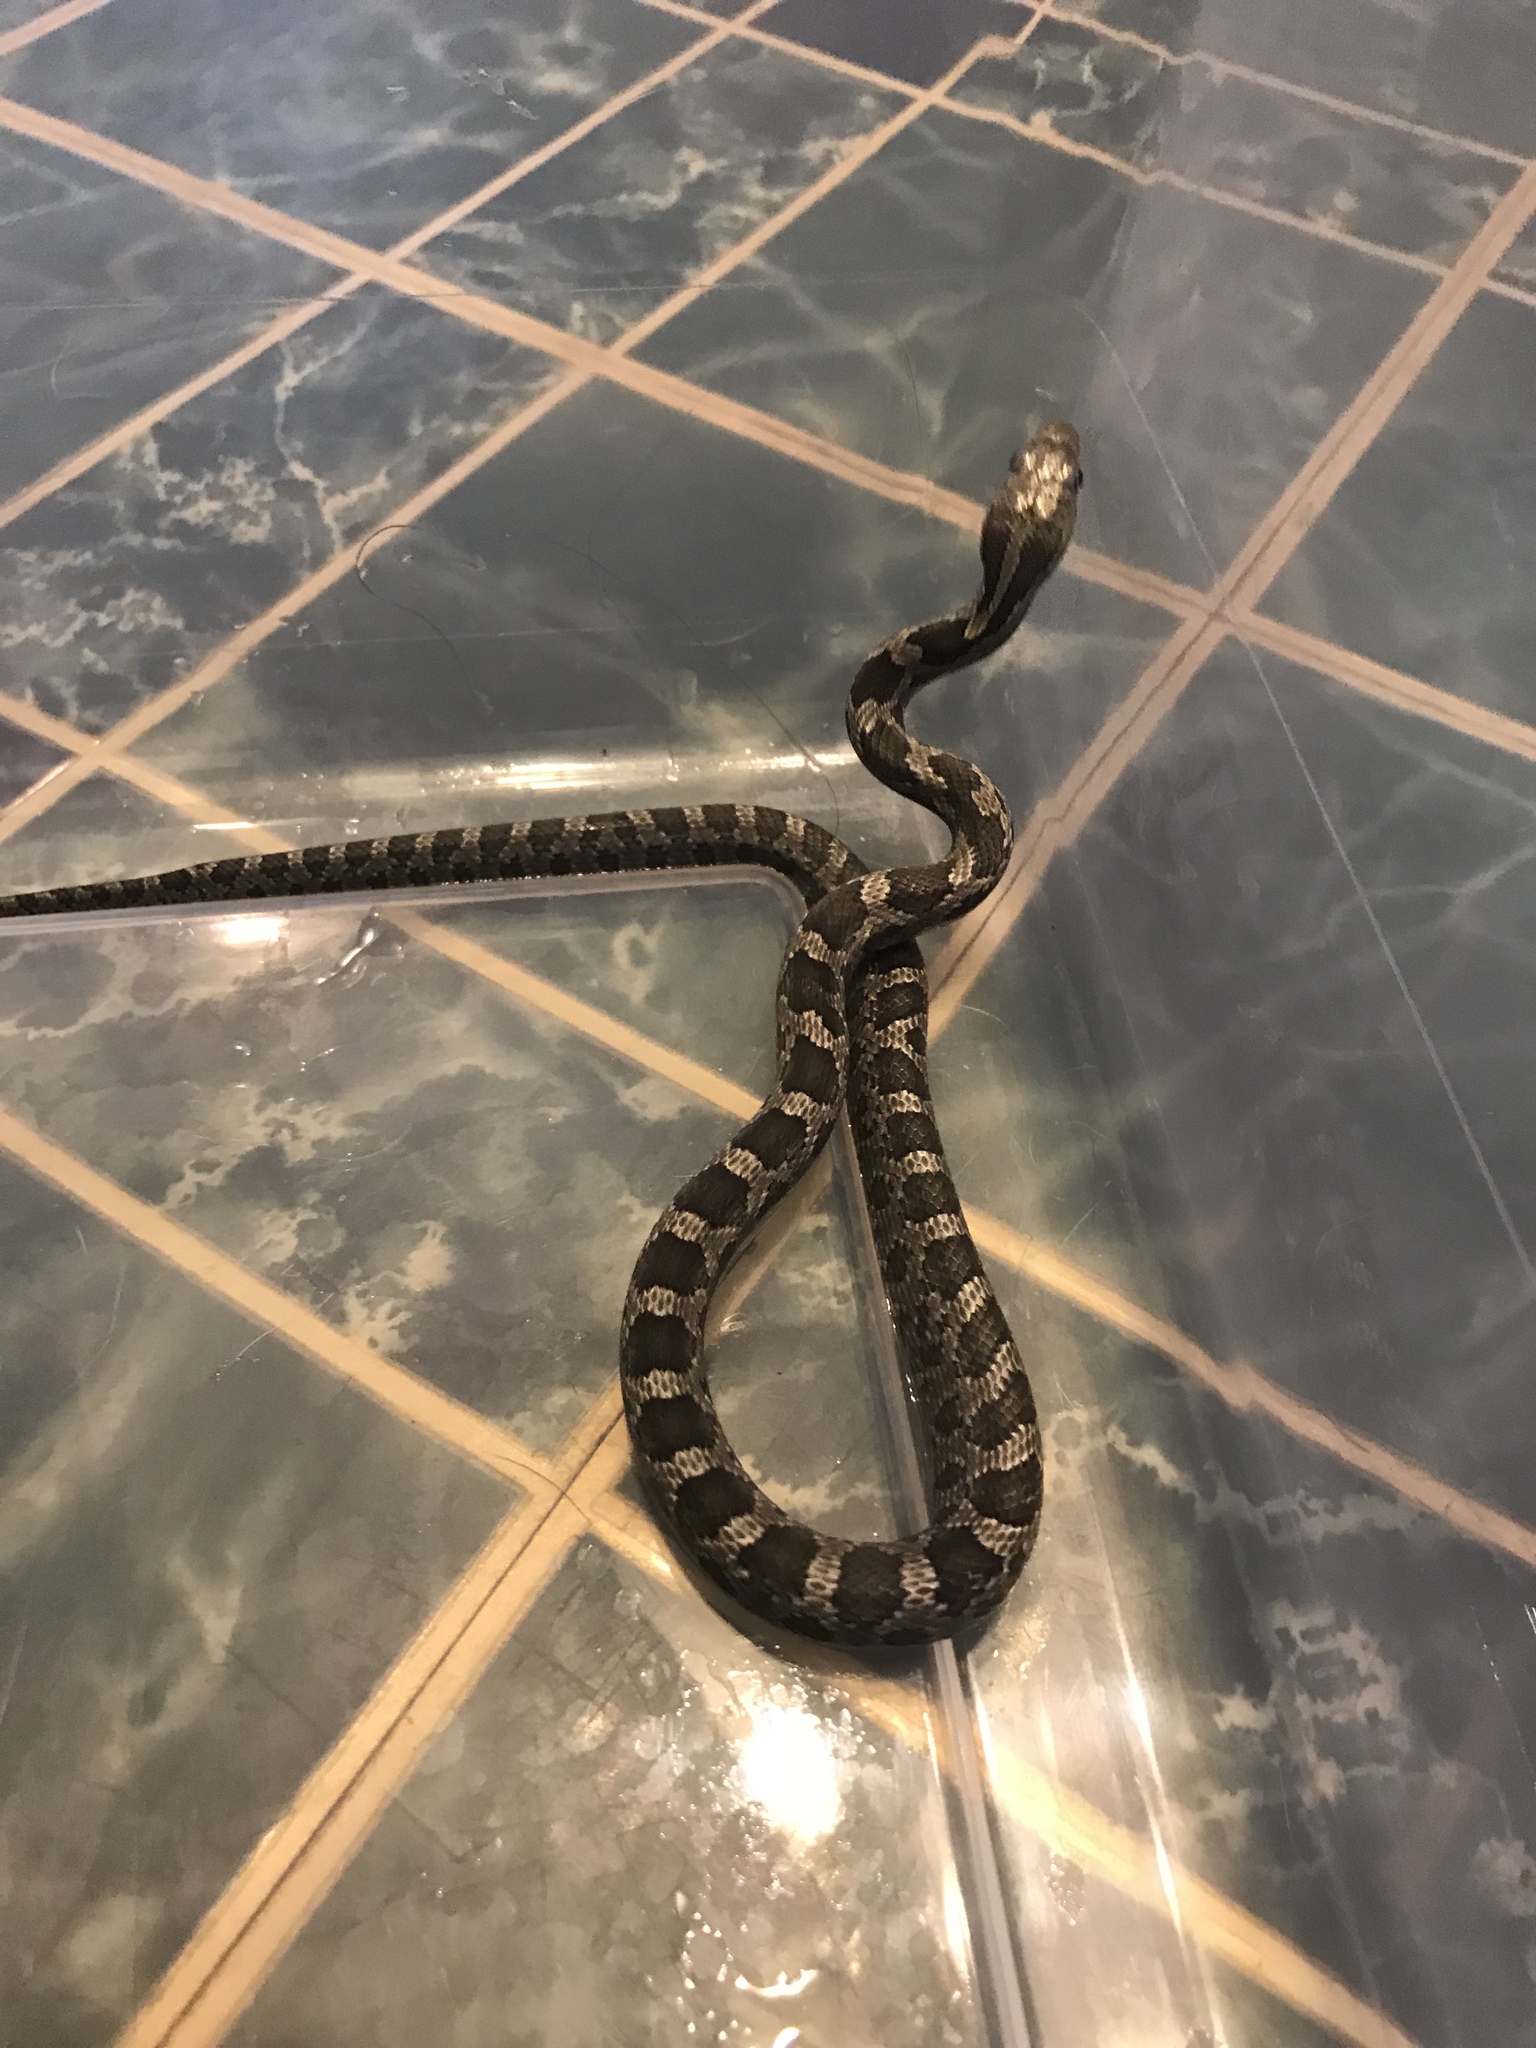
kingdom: Animalia
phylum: Chordata
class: Squamata
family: Colubridae
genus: Pantherophis
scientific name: Pantherophis
